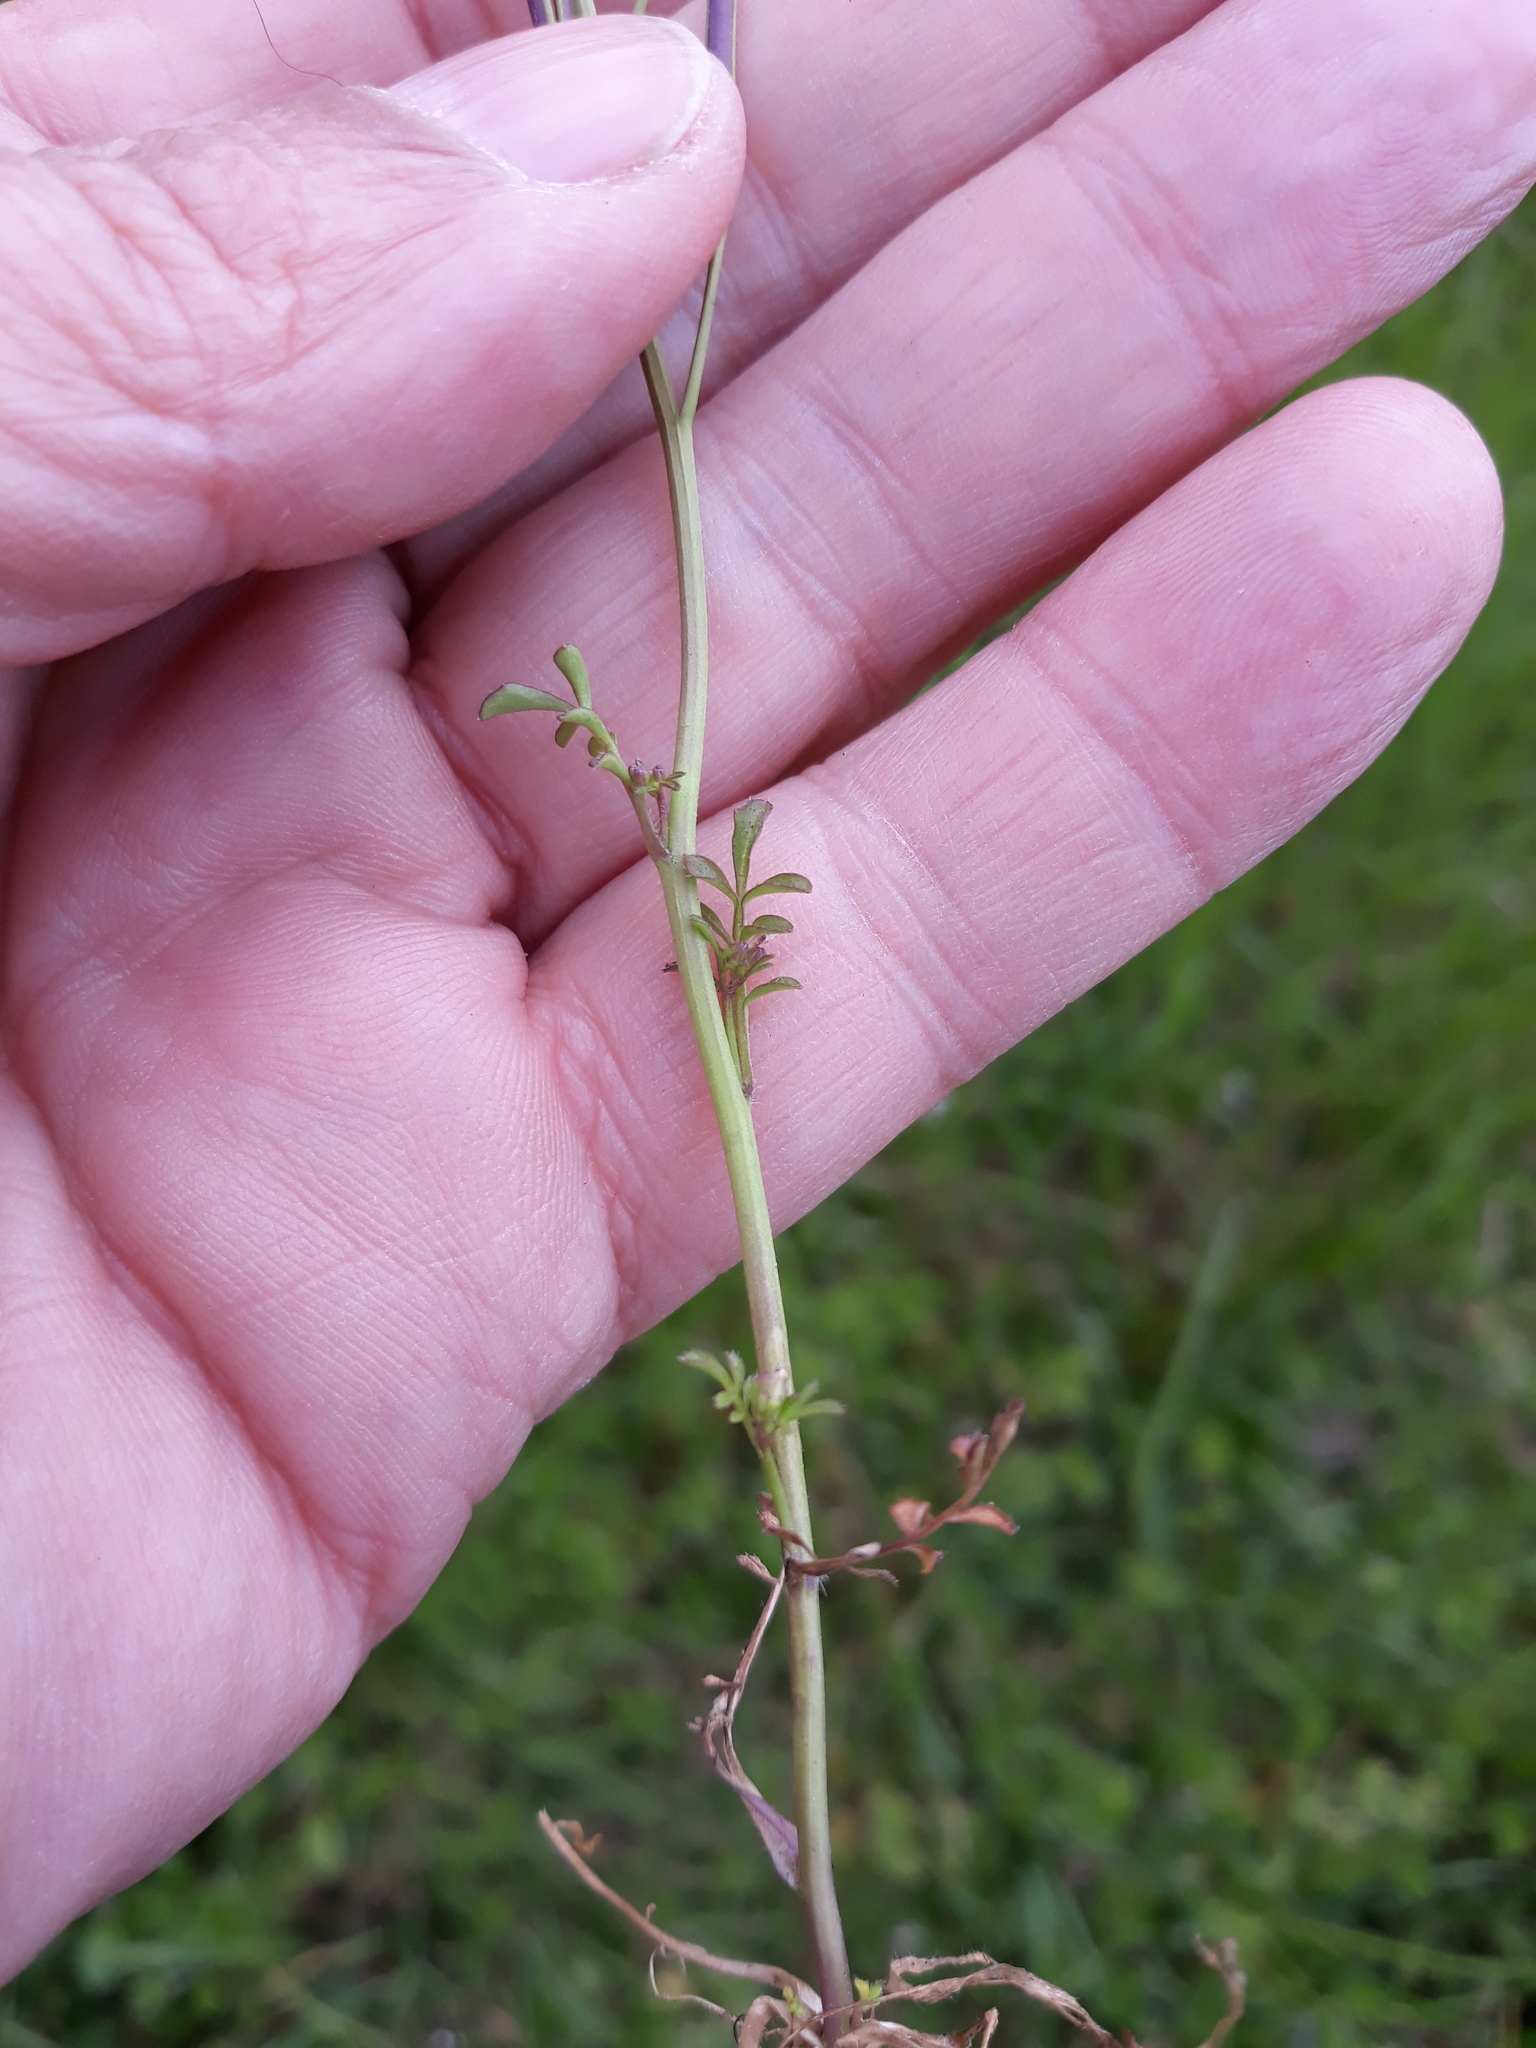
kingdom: Plantae
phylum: Tracheophyta
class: Magnoliopsida
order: Brassicales
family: Brassicaceae
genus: Cardamine
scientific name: Cardamine hirsuta
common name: Hairy bittercress
